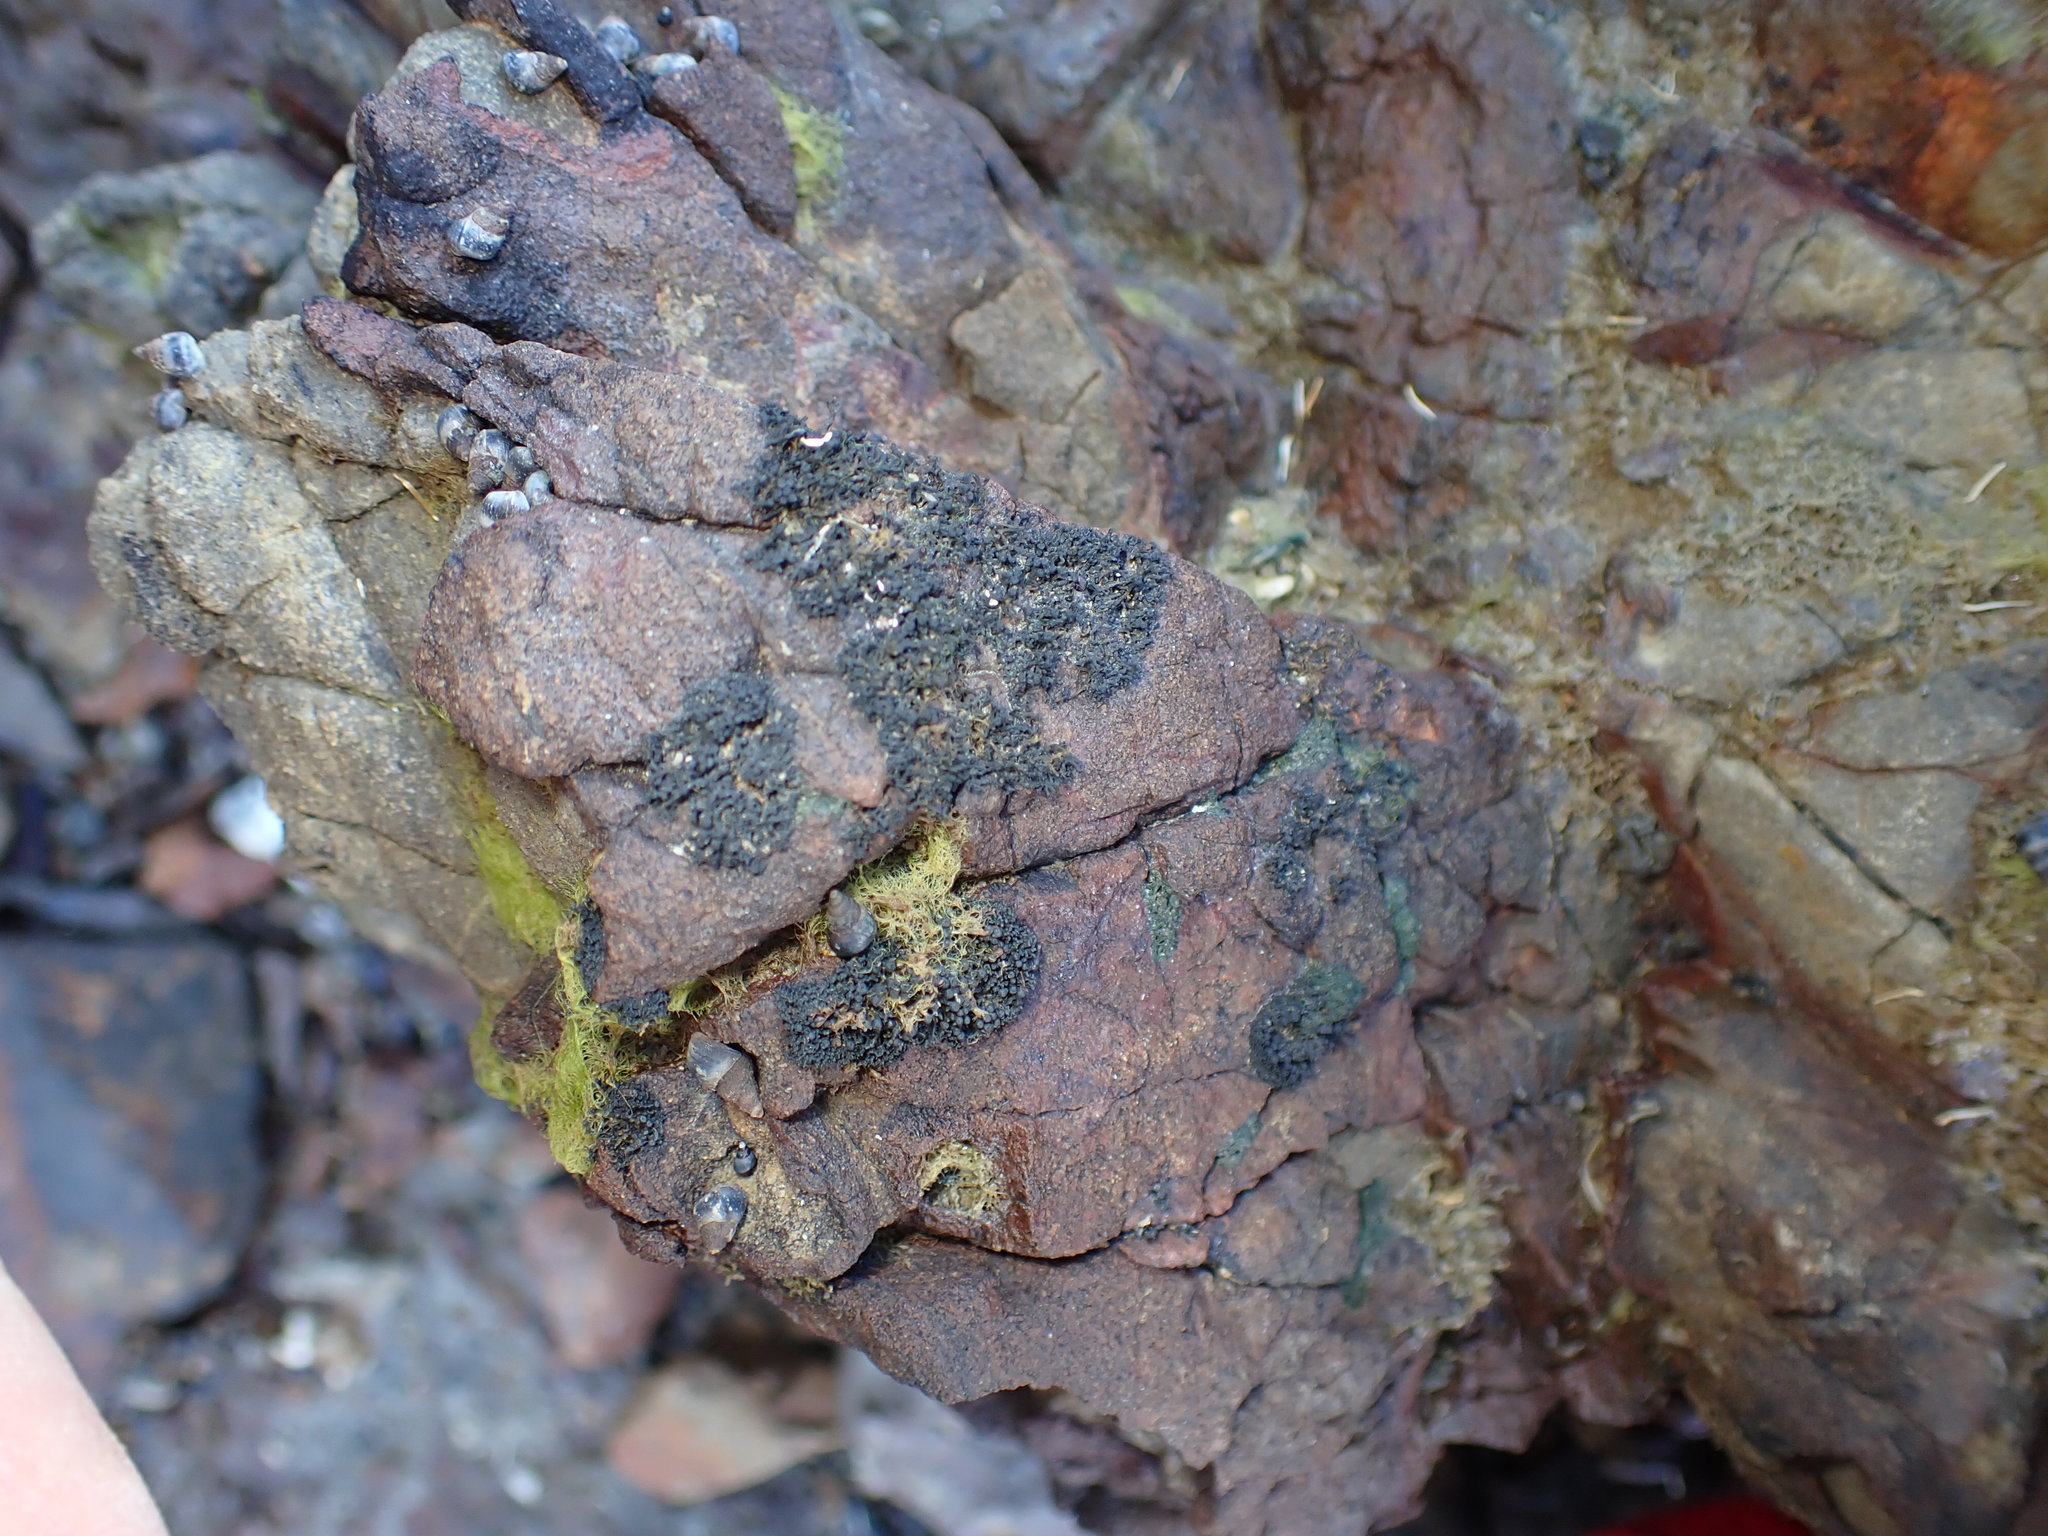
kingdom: Fungi
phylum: Ascomycota
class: Lichinomycetes
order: Lichinales
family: Lichinaceae
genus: Lichina
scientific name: Lichina intermedia
